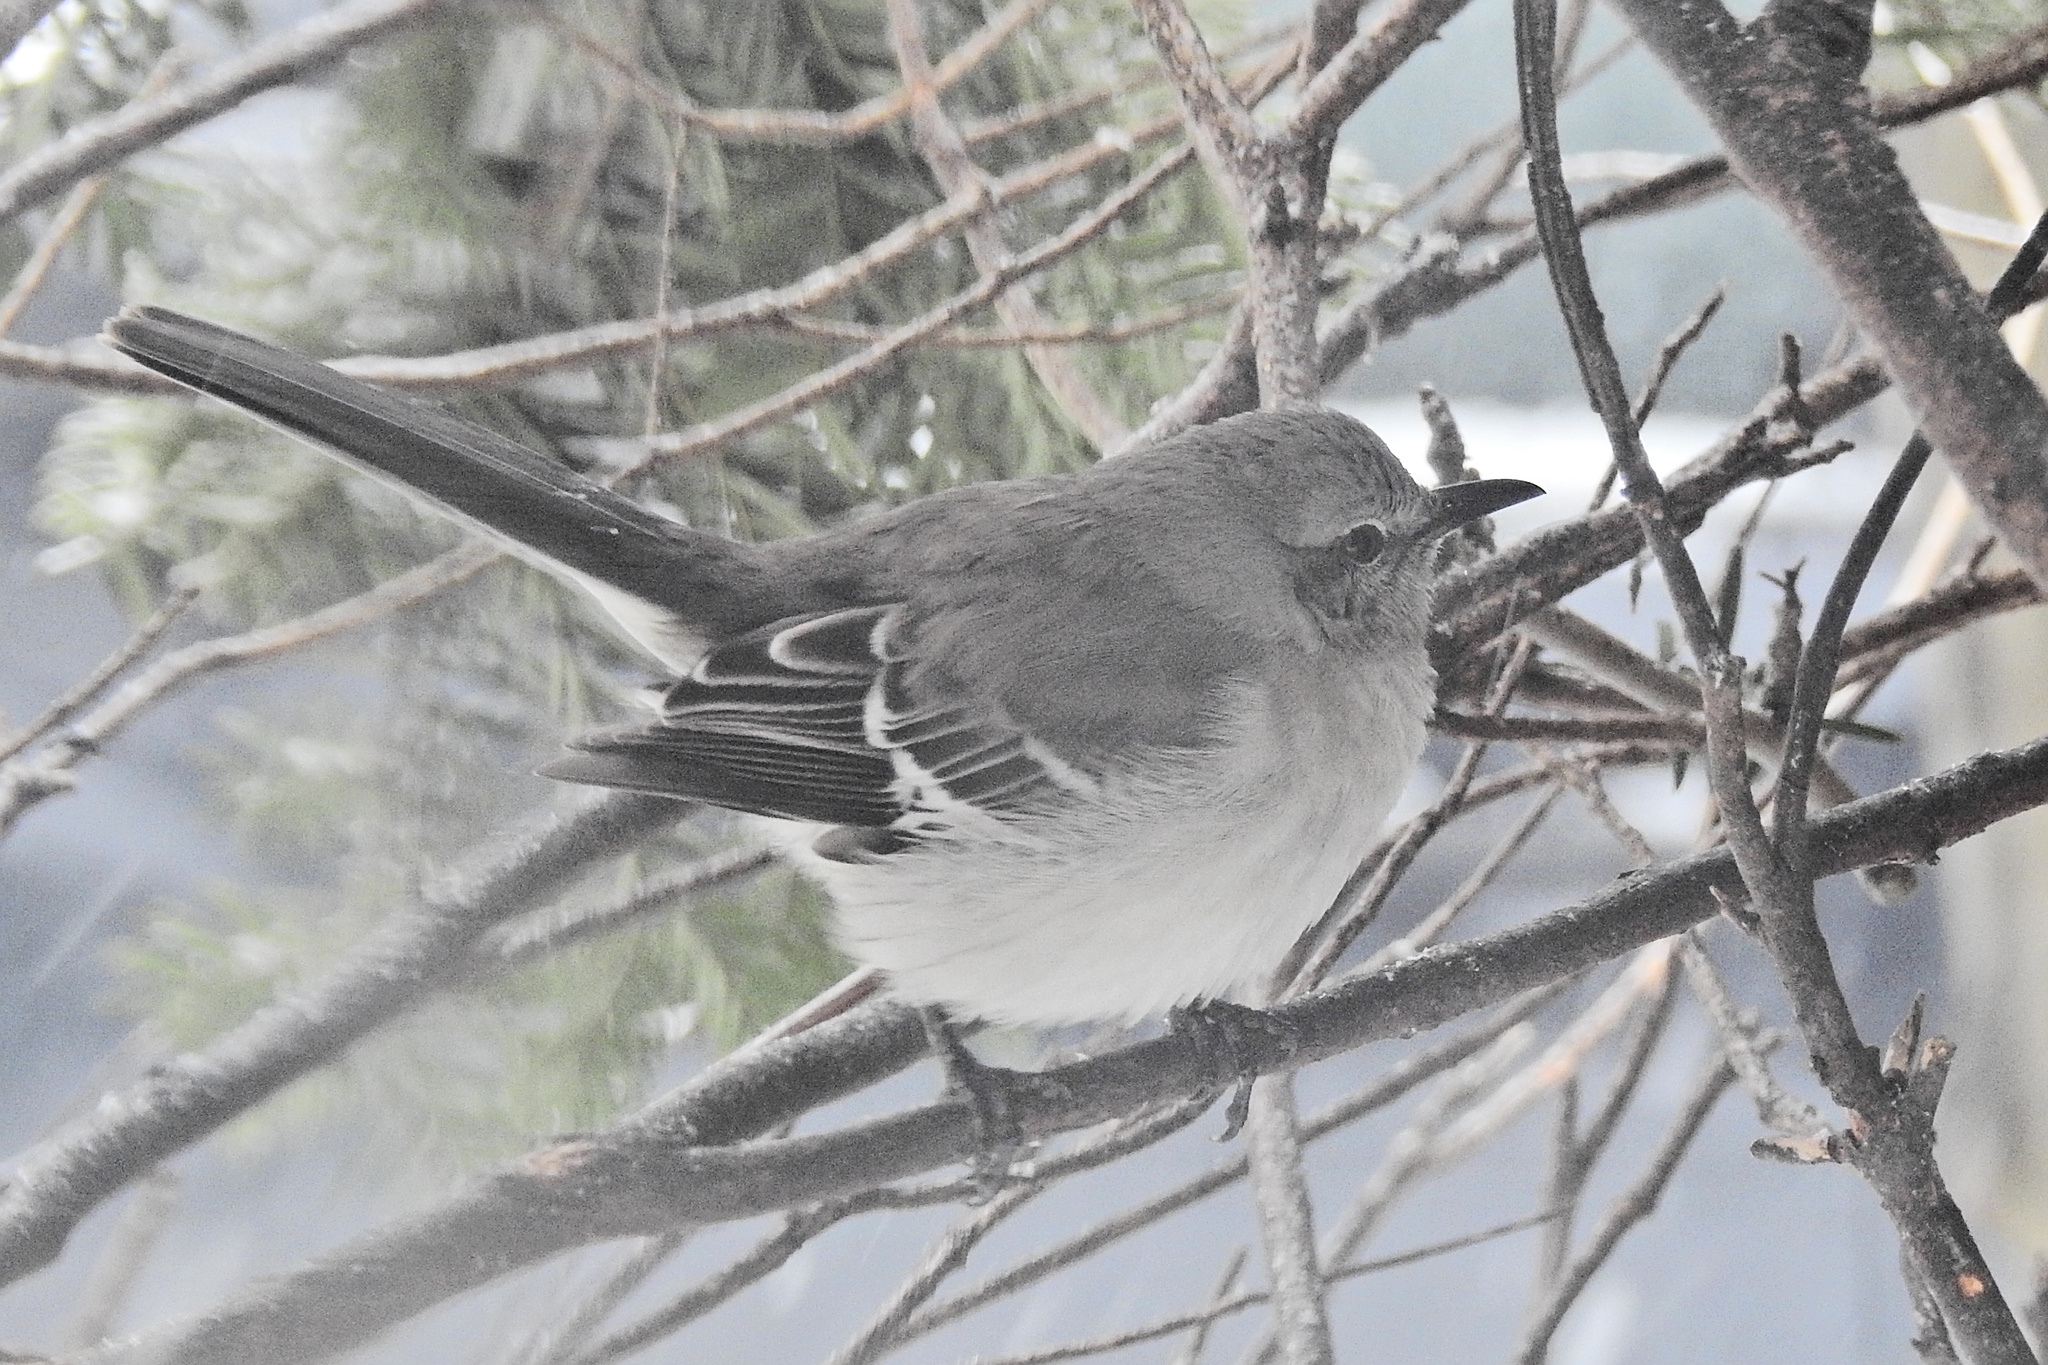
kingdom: Animalia
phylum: Chordata
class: Aves
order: Passeriformes
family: Mimidae
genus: Mimus
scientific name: Mimus polyglottos
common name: Northern mockingbird
